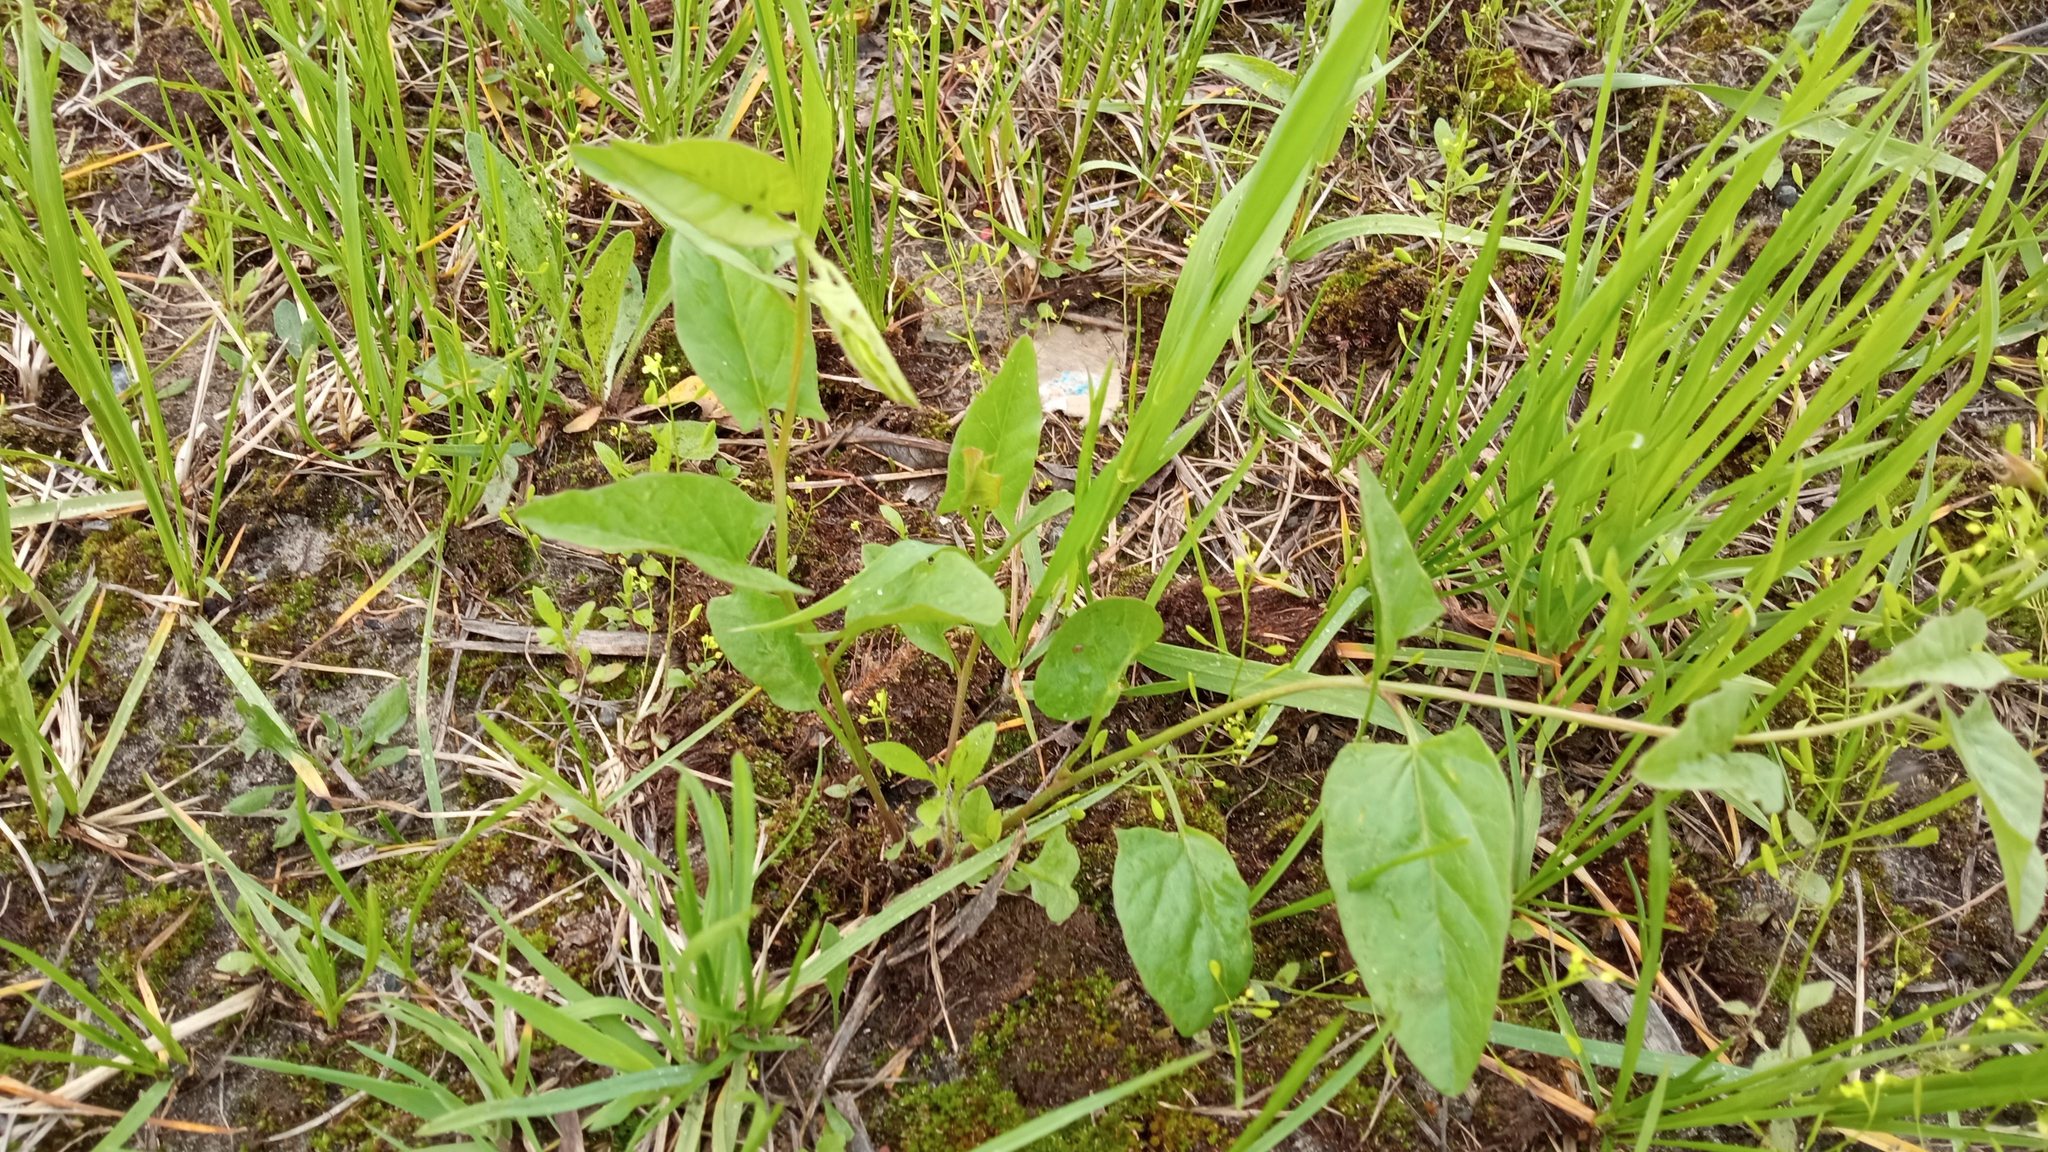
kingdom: Plantae
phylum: Tracheophyta
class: Magnoliopsida
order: Solanales
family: Convolvulaceae
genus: Convolvulus
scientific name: Convolvulus arvensis
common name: Field bindweed
